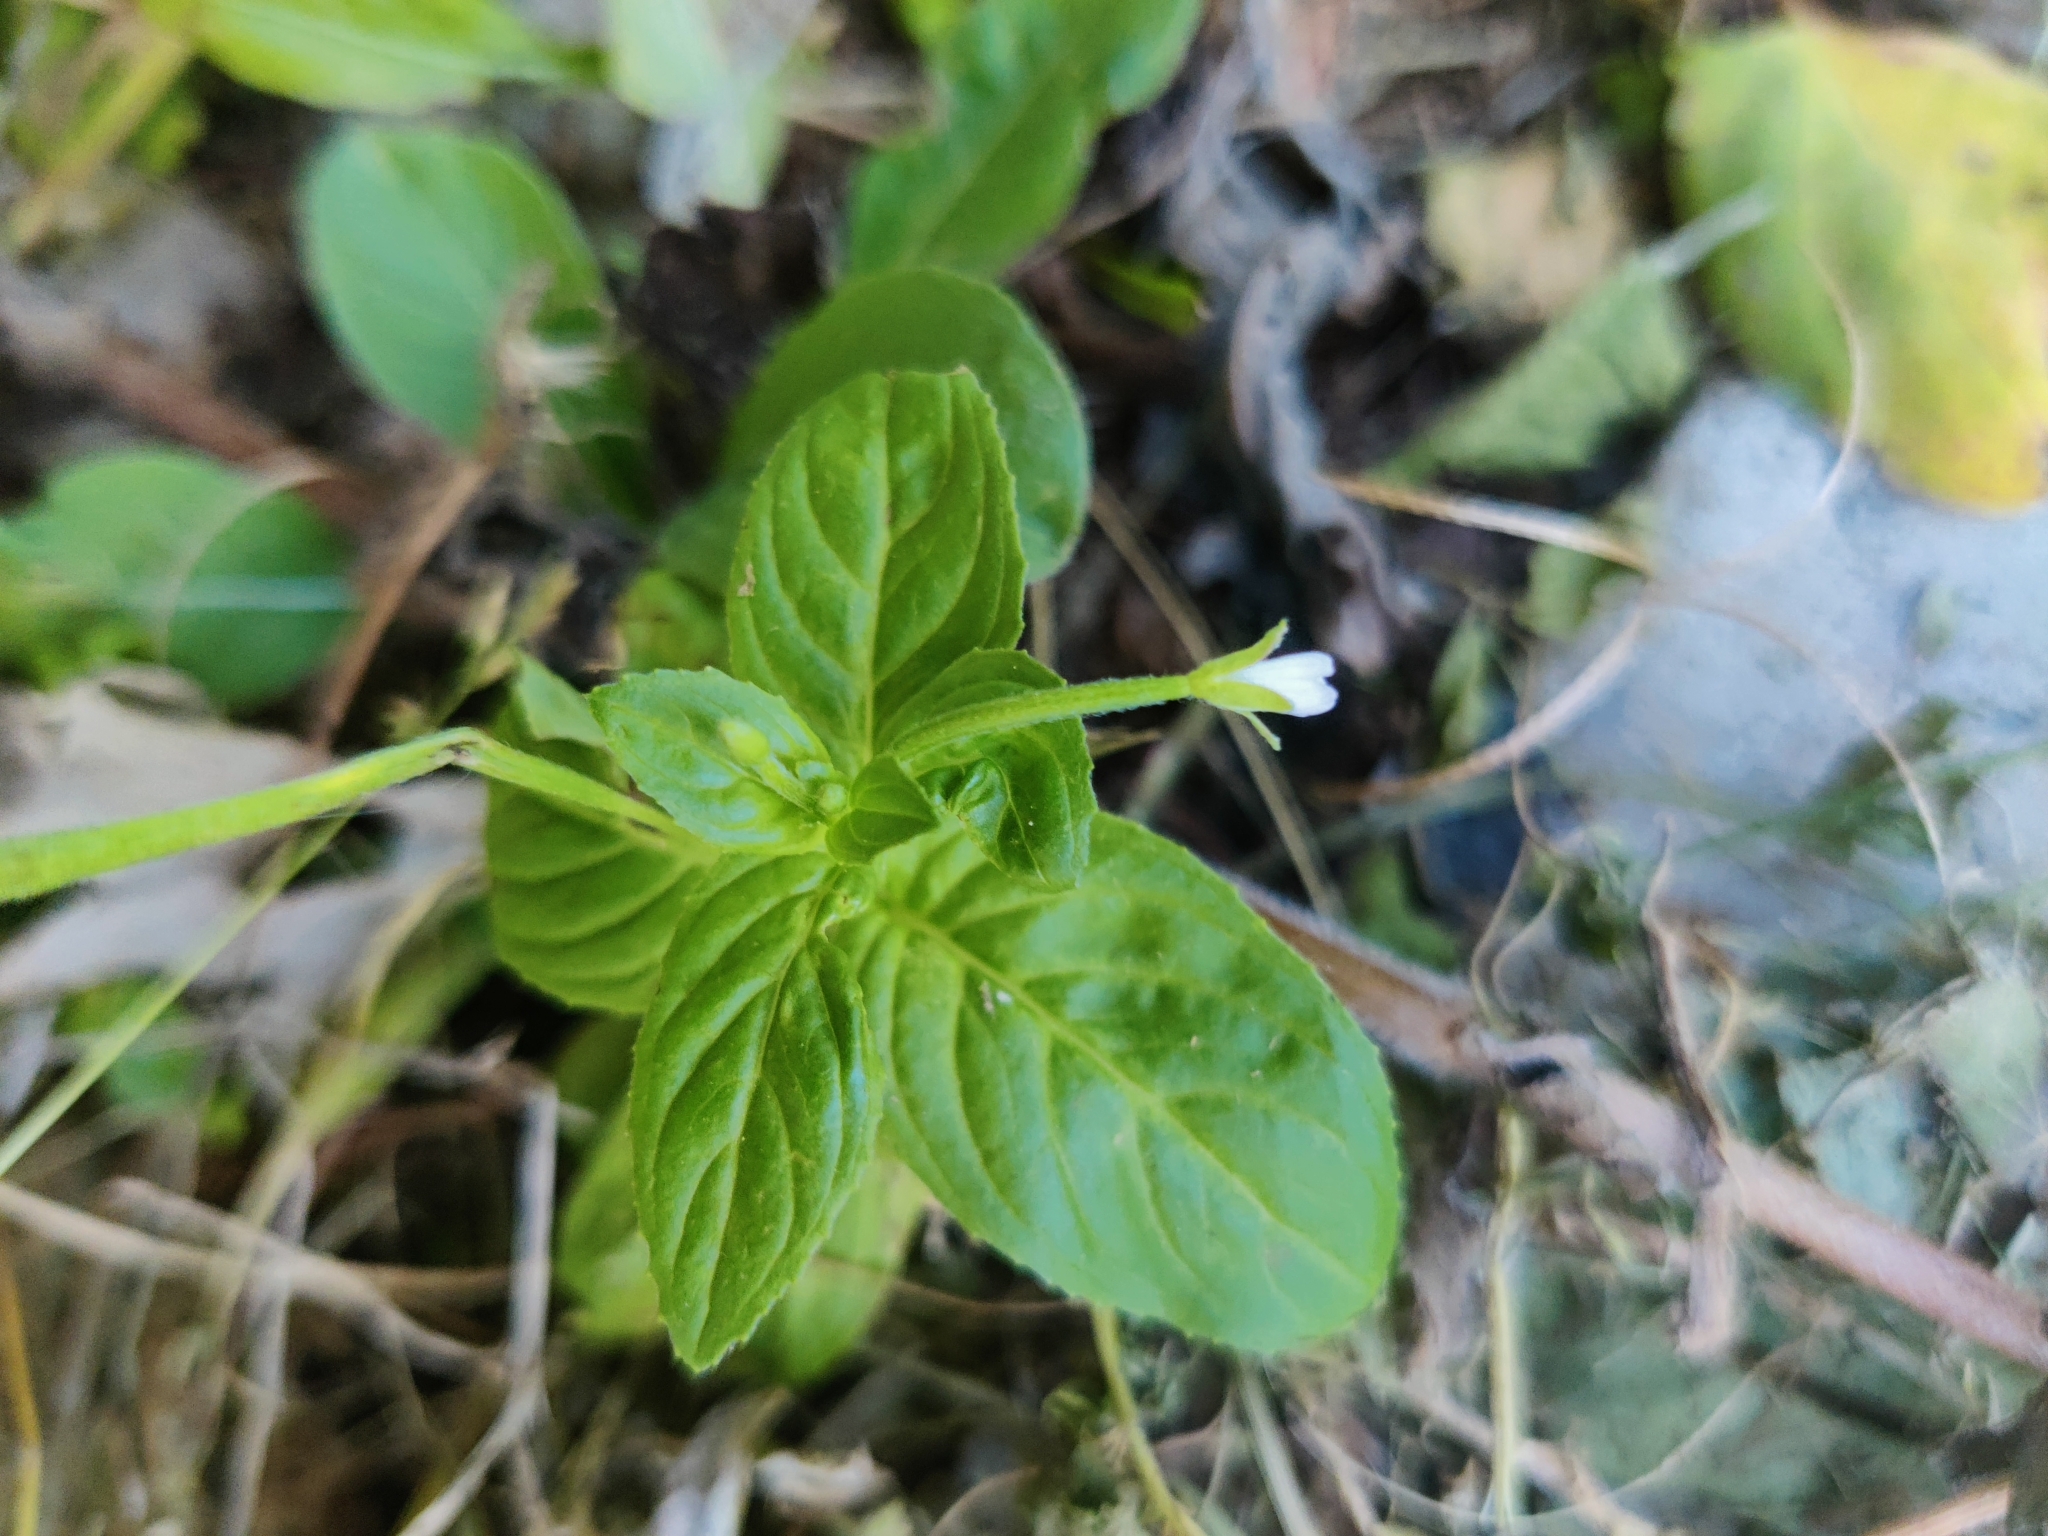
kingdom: Plantae
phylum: Tracheophyta
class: Magnoliopsida
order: Myrtales
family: Onagraceae
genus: Epilobium
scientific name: Epilobium pseudorubescens
